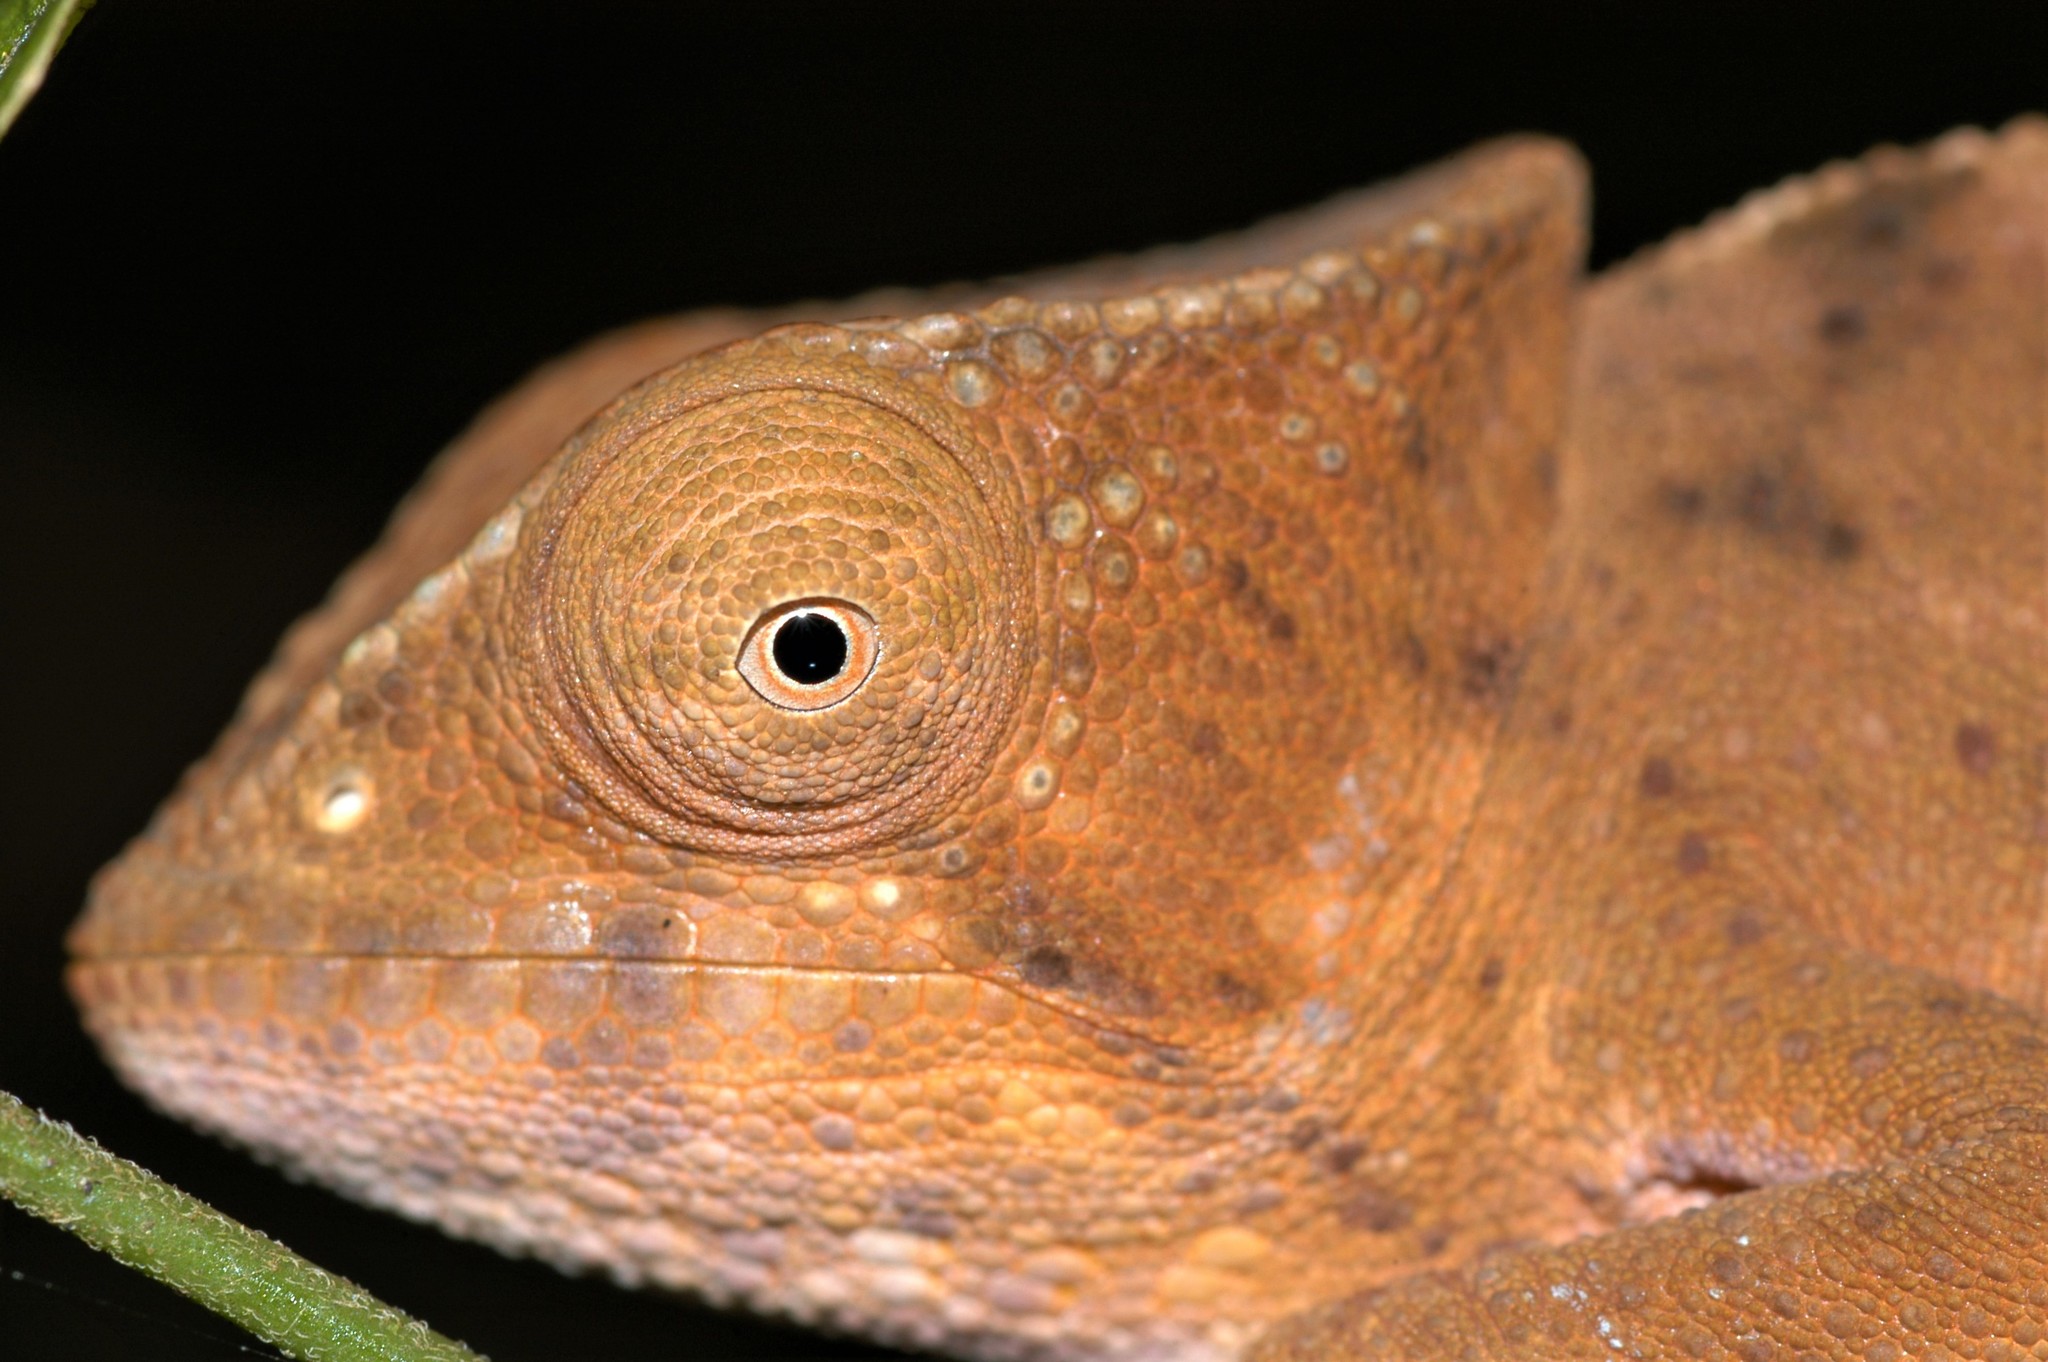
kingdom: Animalia
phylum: Chordata
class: Squamata
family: Chamaeleonidae
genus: Calumma
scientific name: Calumma ambreense
